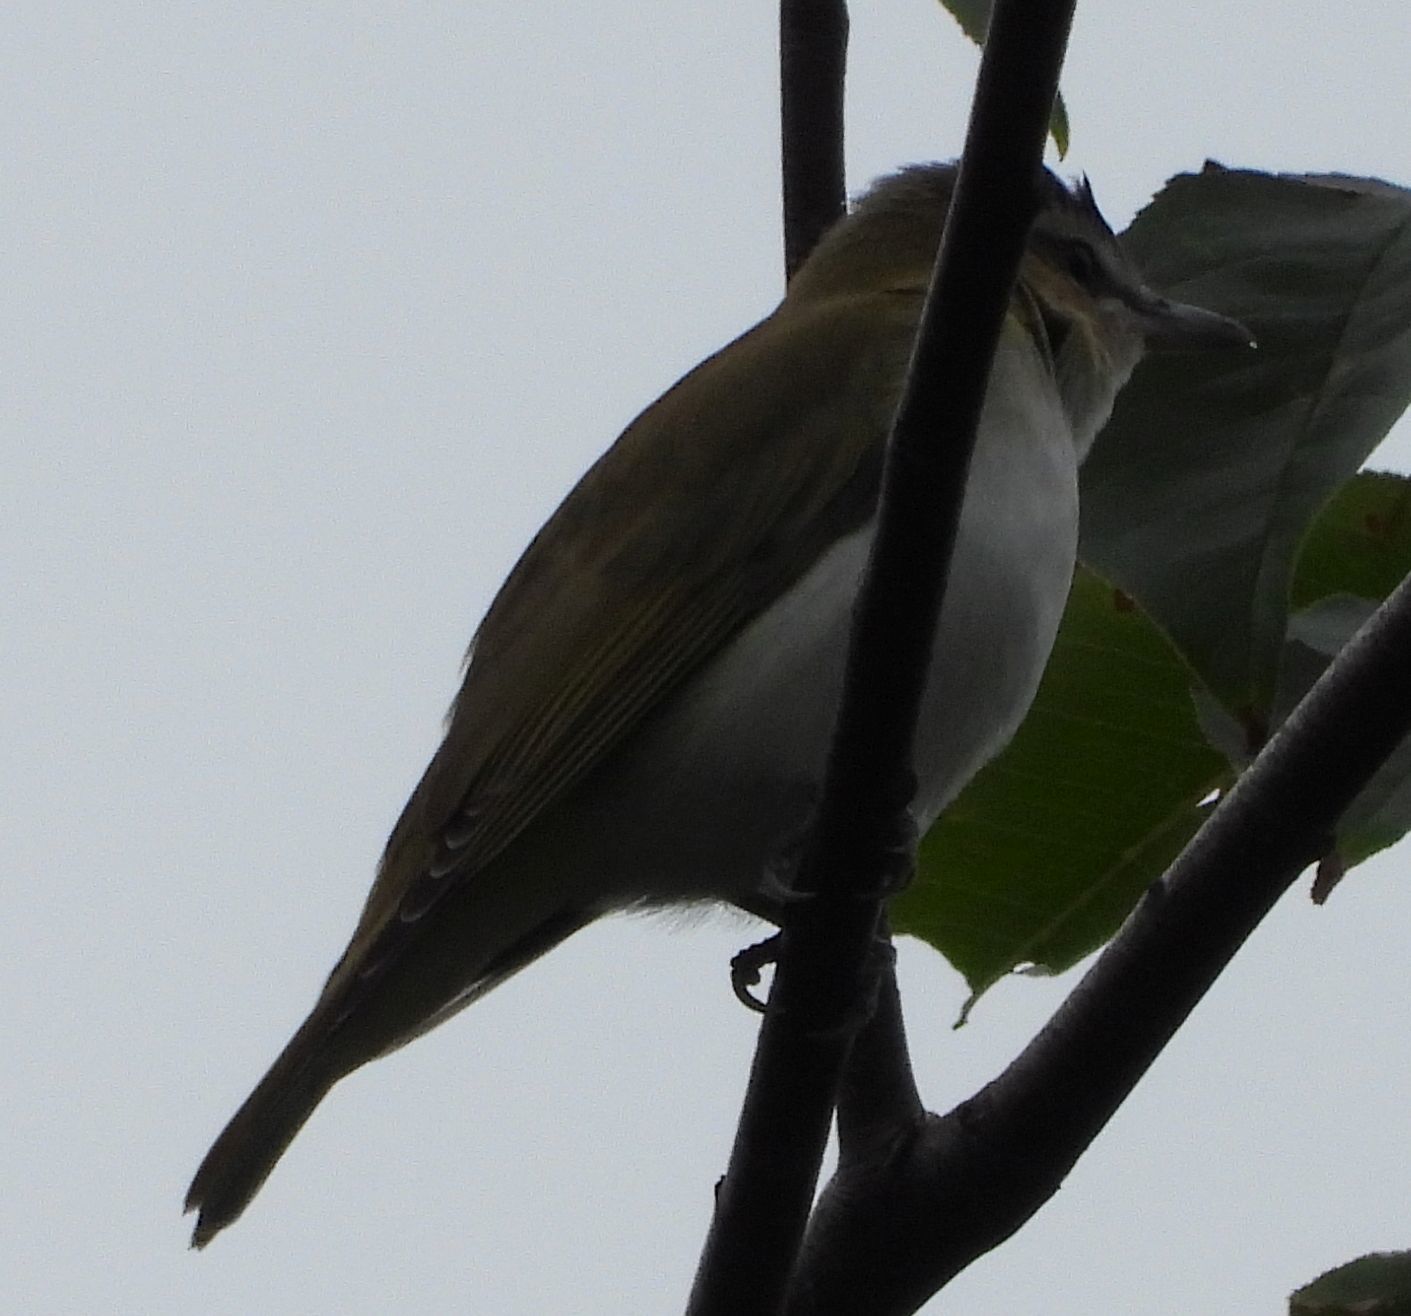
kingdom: Animalia
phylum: Chordata
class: Aves
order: Passeriformes
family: Vireonidae
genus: Vireo
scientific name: Vireo olivaceus
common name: Red-eyed vireo
